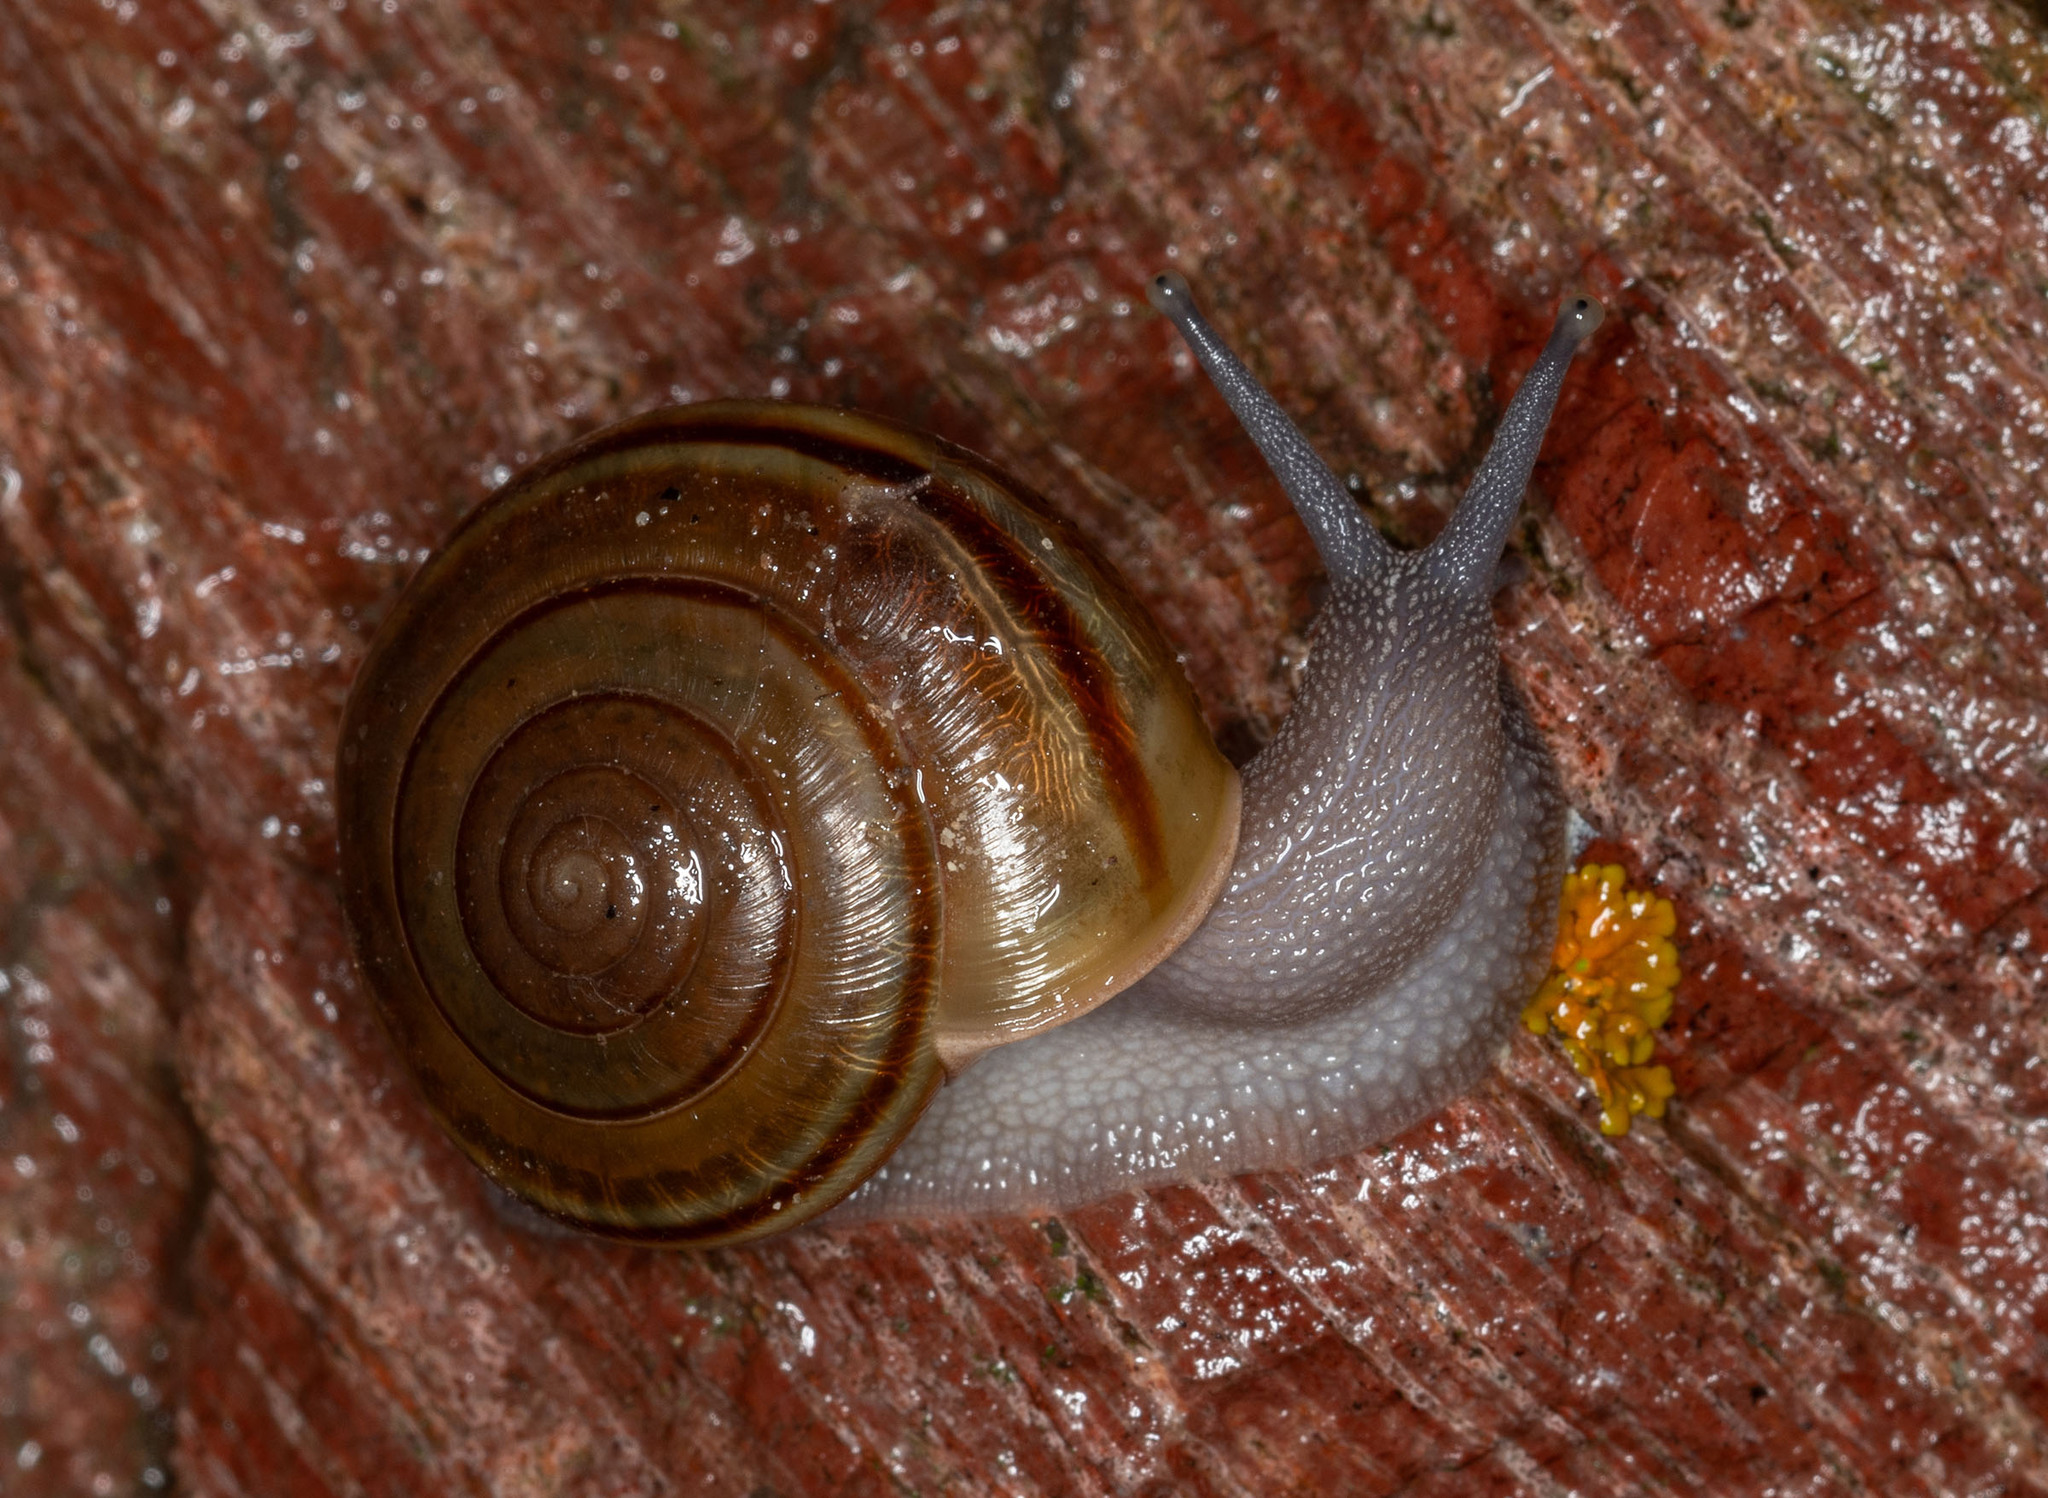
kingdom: Animalia
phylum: Mollusca
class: Gastropoda
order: Stylommatophora
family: Xanthonychidae
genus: Helminthoglypta
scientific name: Helminthoglypta benitoensis
